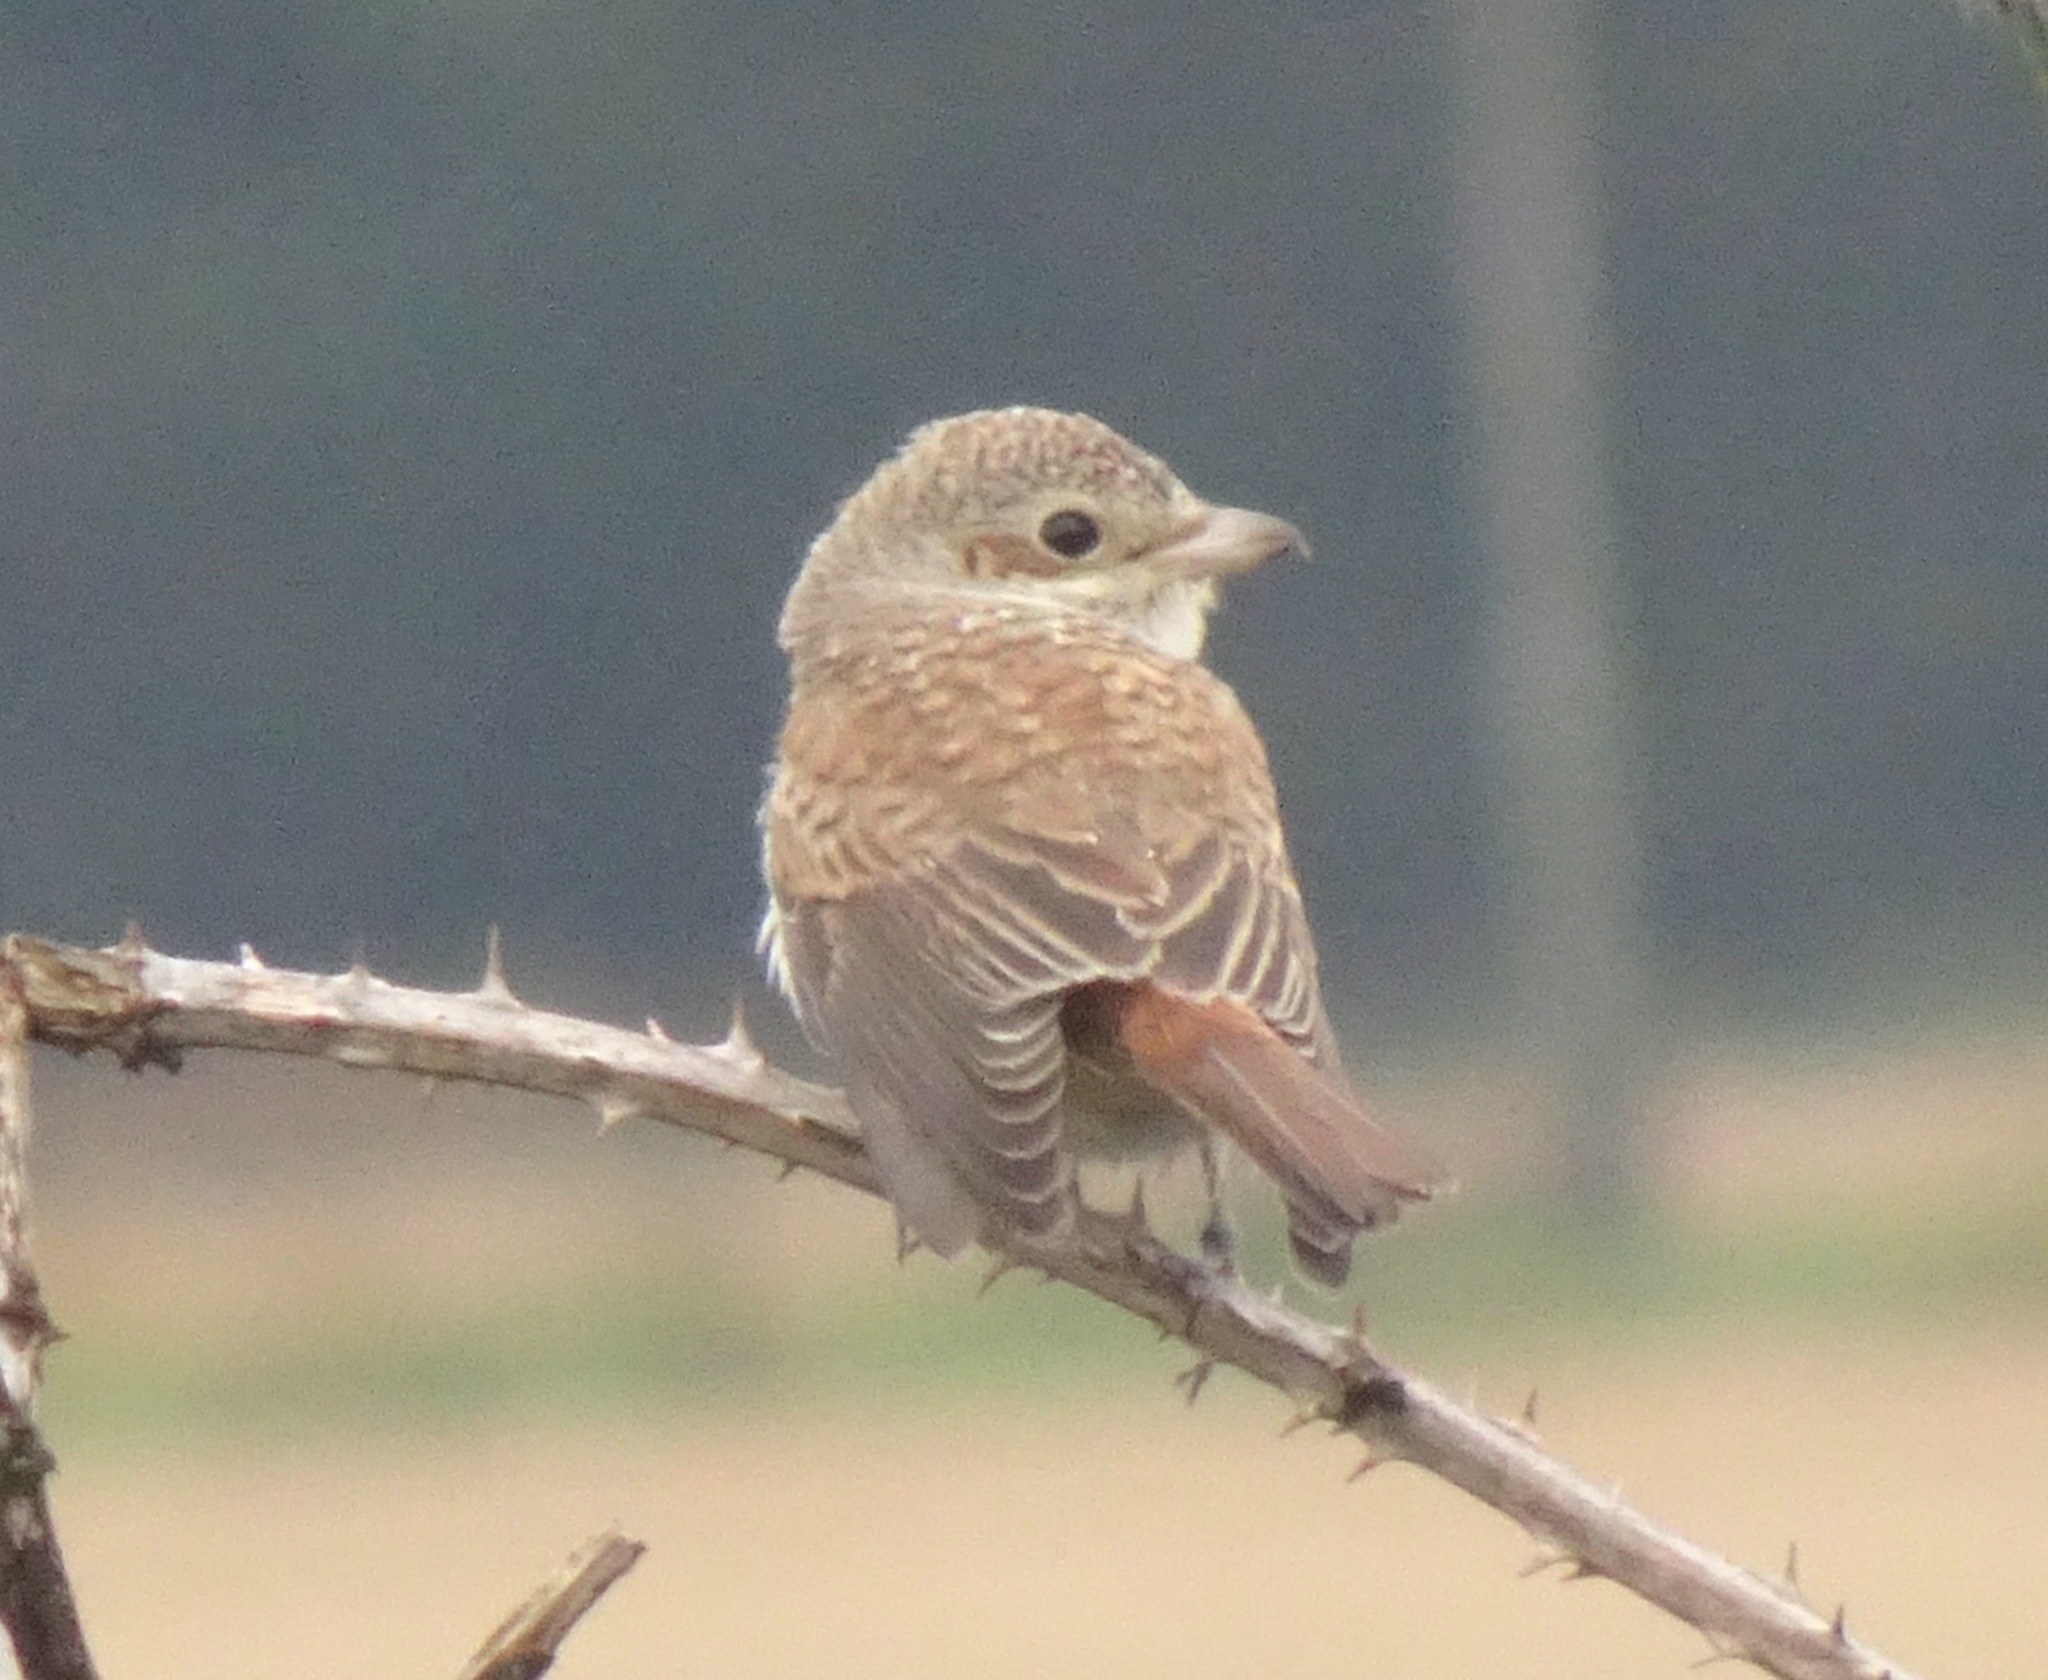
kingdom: Animalia
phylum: Chordata
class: Aves
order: Passeriformes
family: Laniidae
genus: Lanius
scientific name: Lanius collurio
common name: Red-backed shrike
